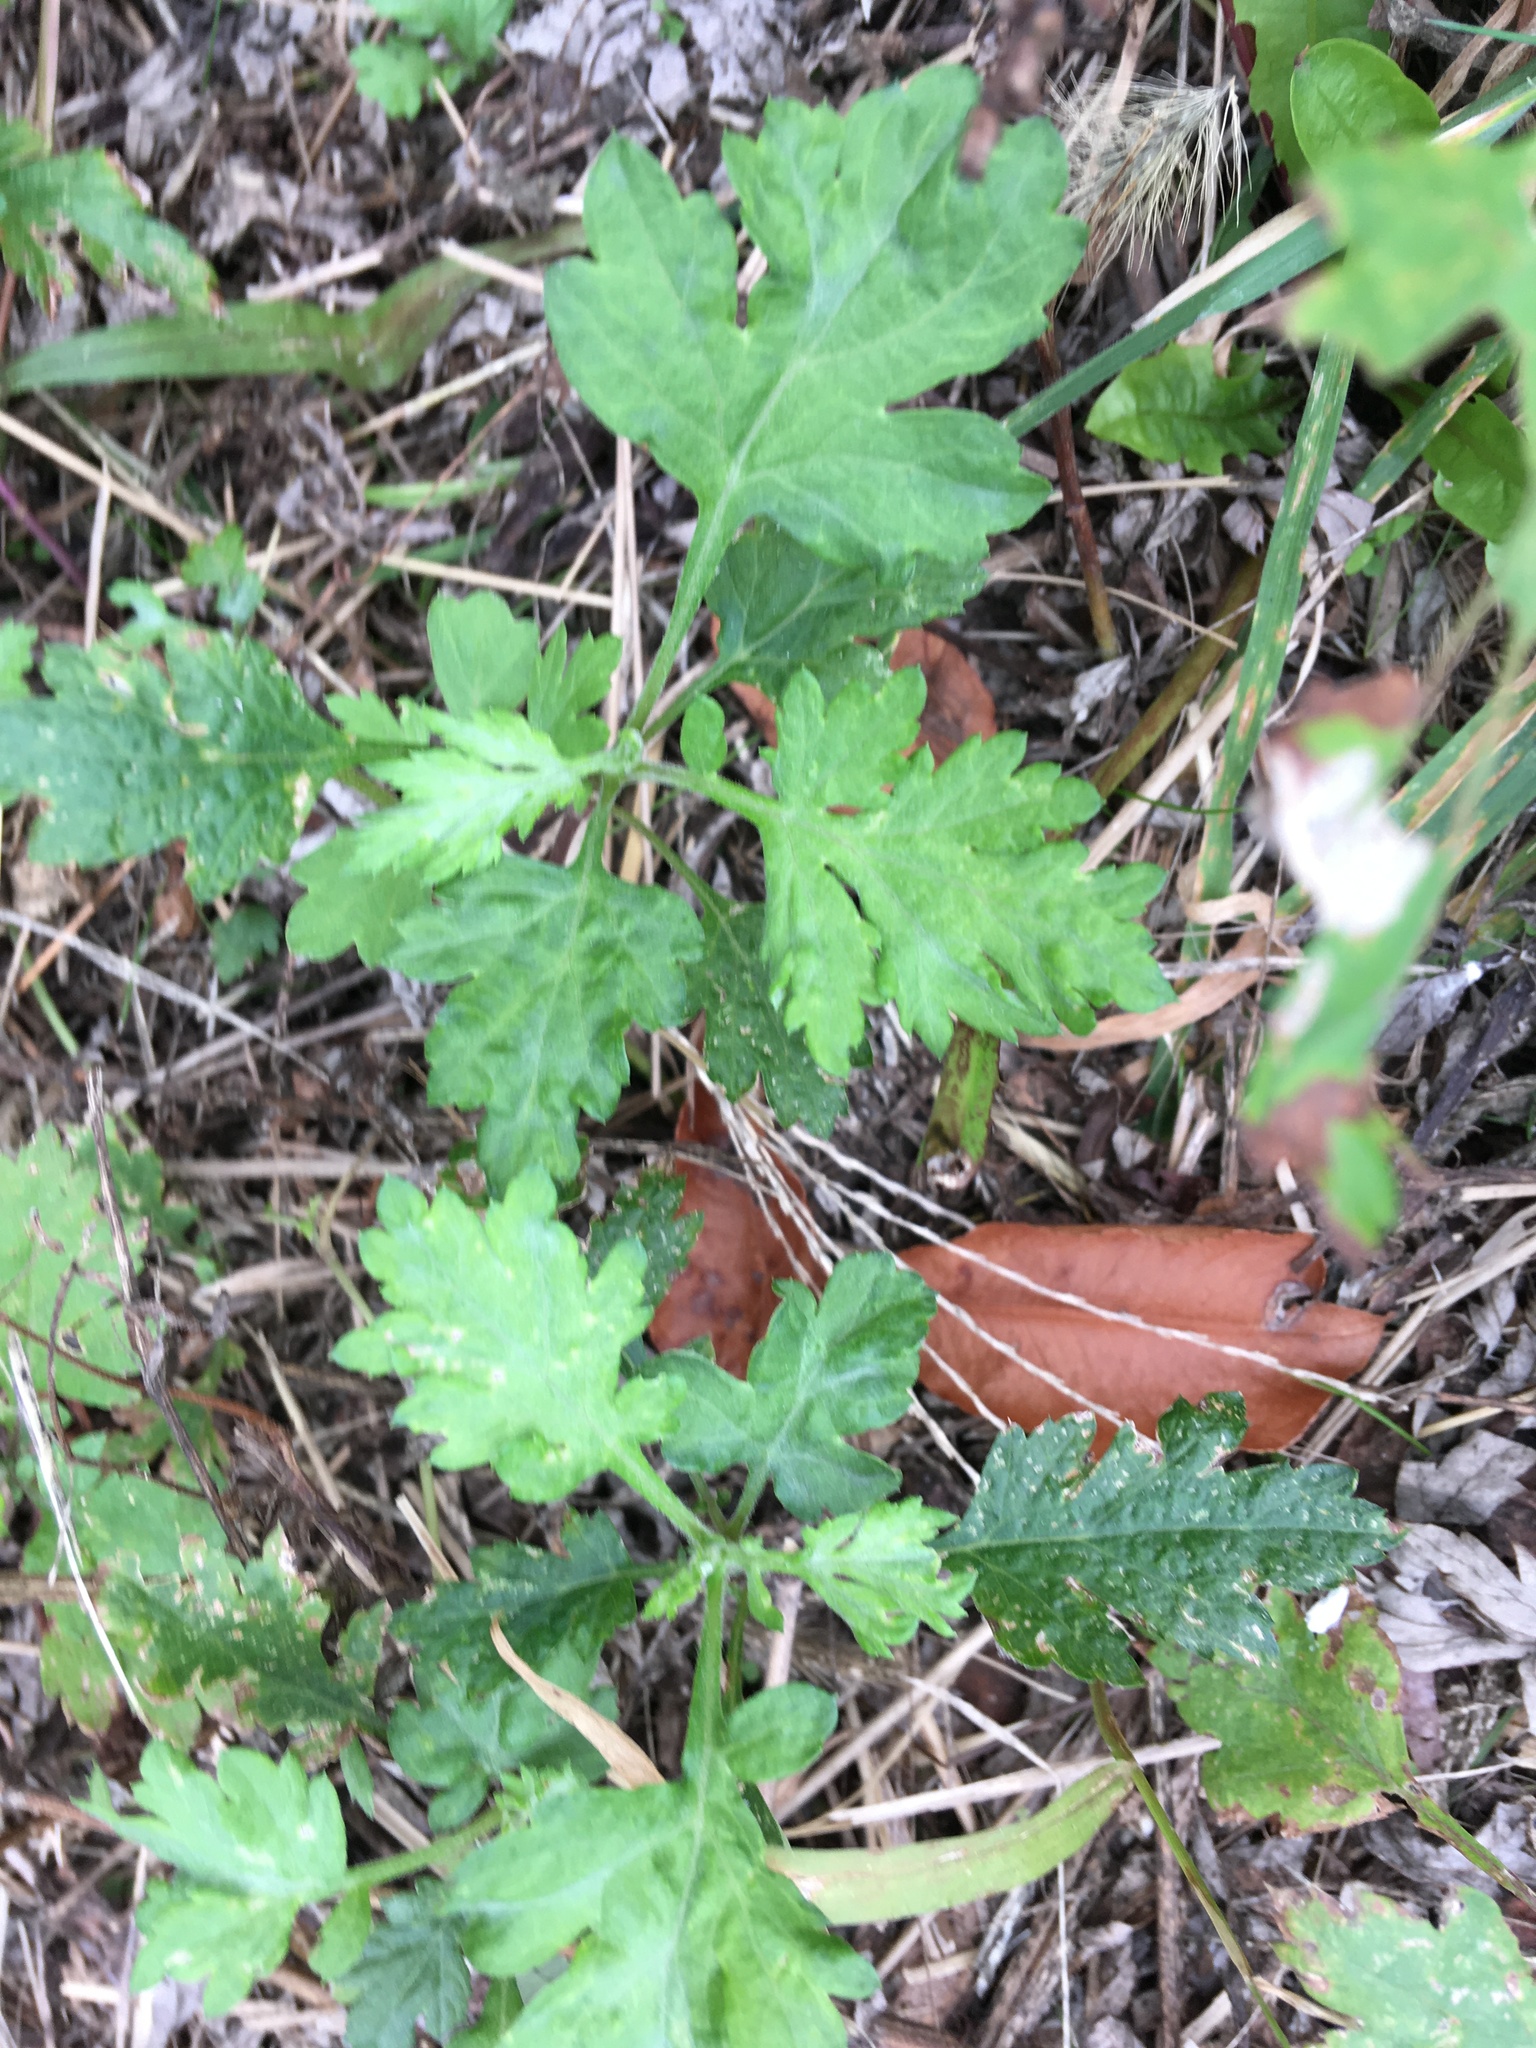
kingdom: Plantae
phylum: Tracheophyta
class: Magnoliopsida
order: Asterales
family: Asteraceae
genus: Artemisia
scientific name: Artemisia vulgaris
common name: Mugwort
